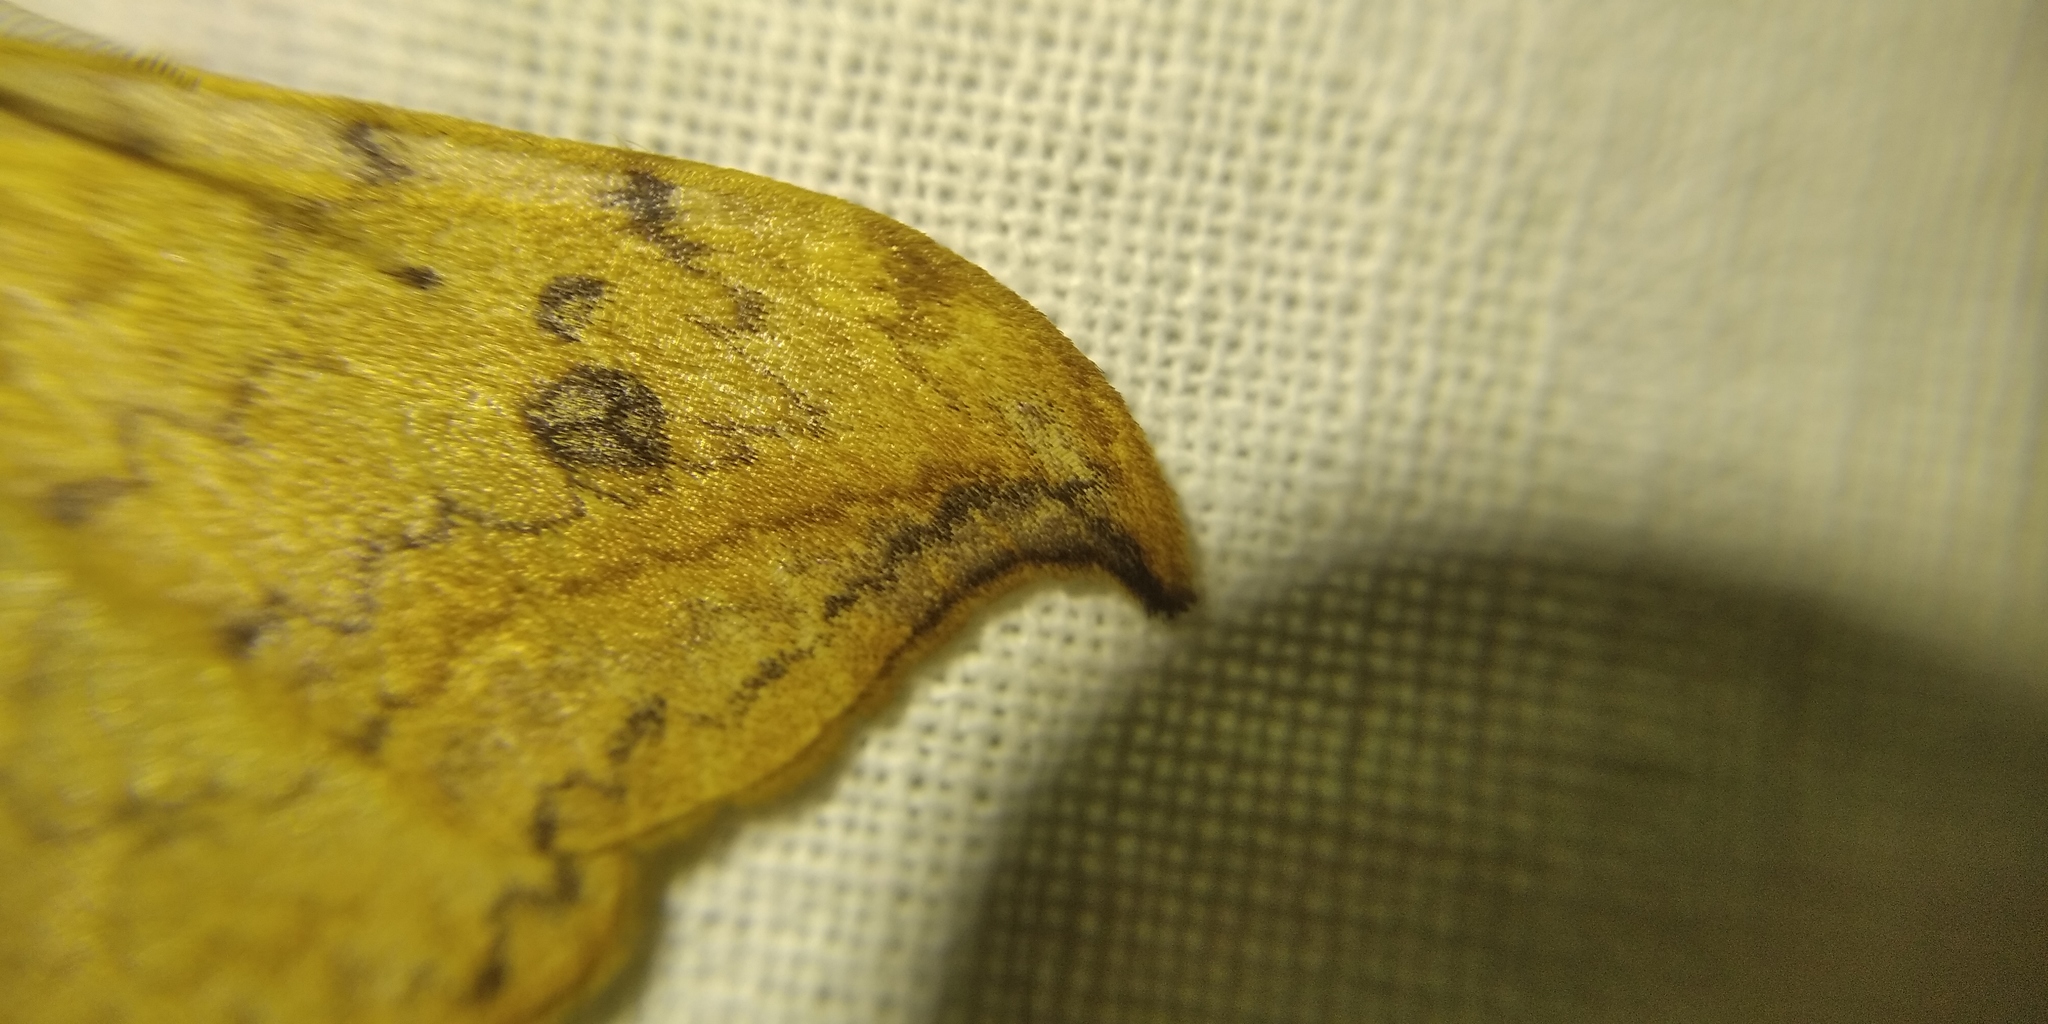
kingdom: Animalia
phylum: Arthropoda
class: Insecta
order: Lepidoptera
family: Drepanidae
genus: Drepana
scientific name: Drepana falcataria
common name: Pebble hook-tip
